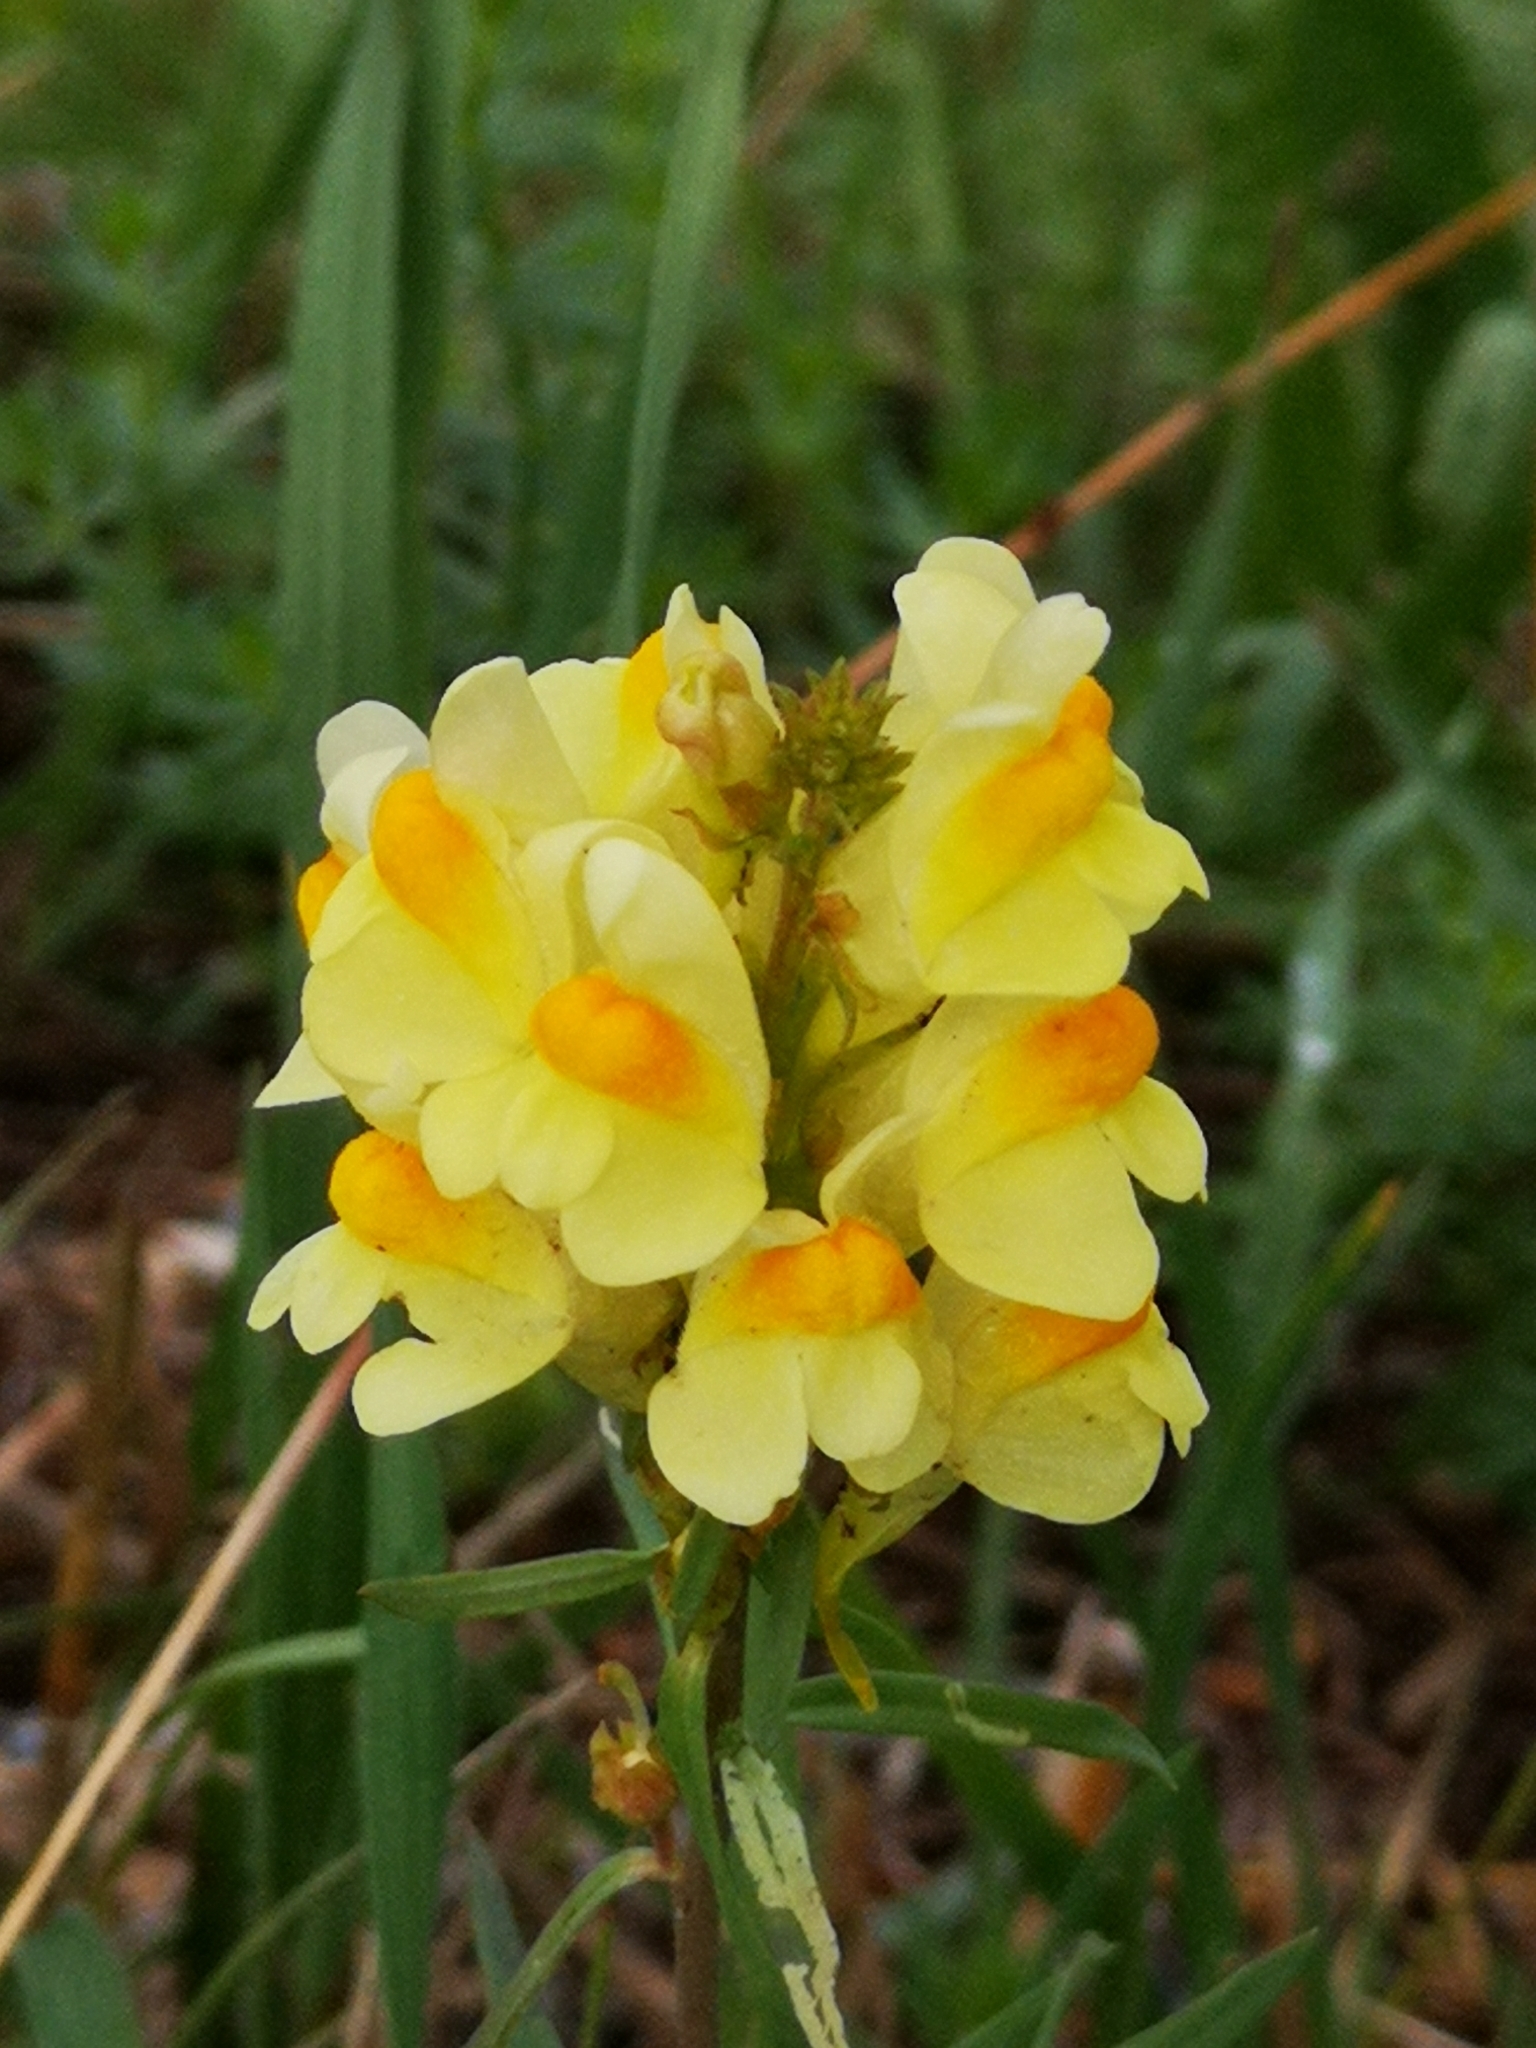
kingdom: Plantae
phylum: Tracheophyta
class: Magnoliopsida
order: Lamiales
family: Plantaginaceae
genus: Linaria
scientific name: Linaria vulgaris
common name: Butter and eggs
